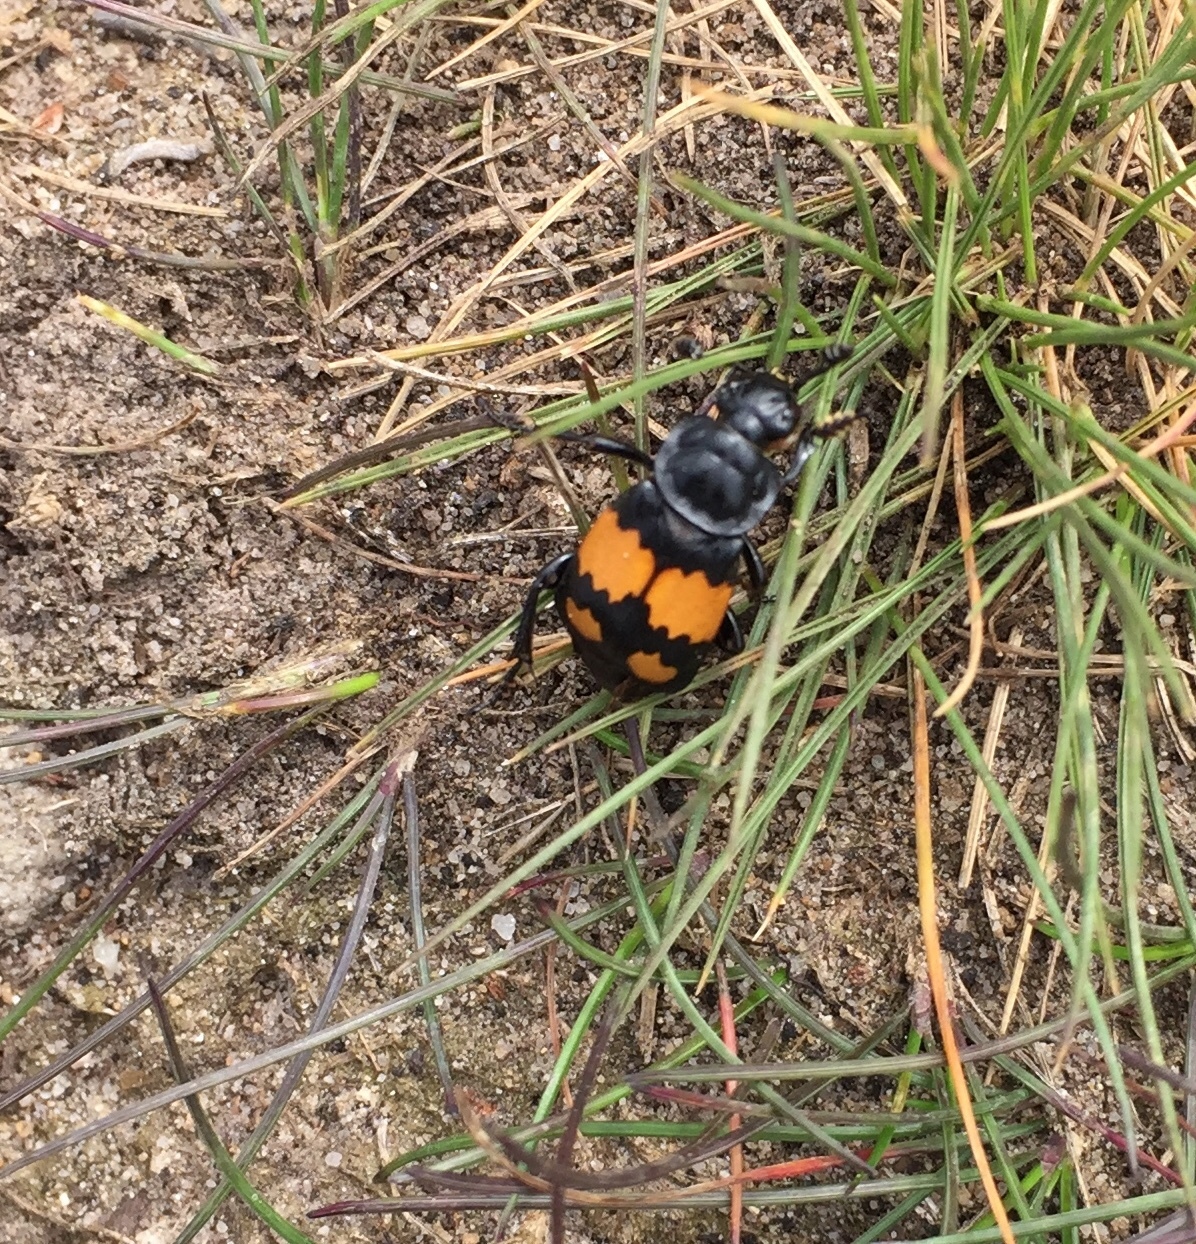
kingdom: Animalia
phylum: Arthropoda
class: Insecta
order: Coleoptera
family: Staphylinidae
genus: Nicrophorus
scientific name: Nicrophorus vespilloides
